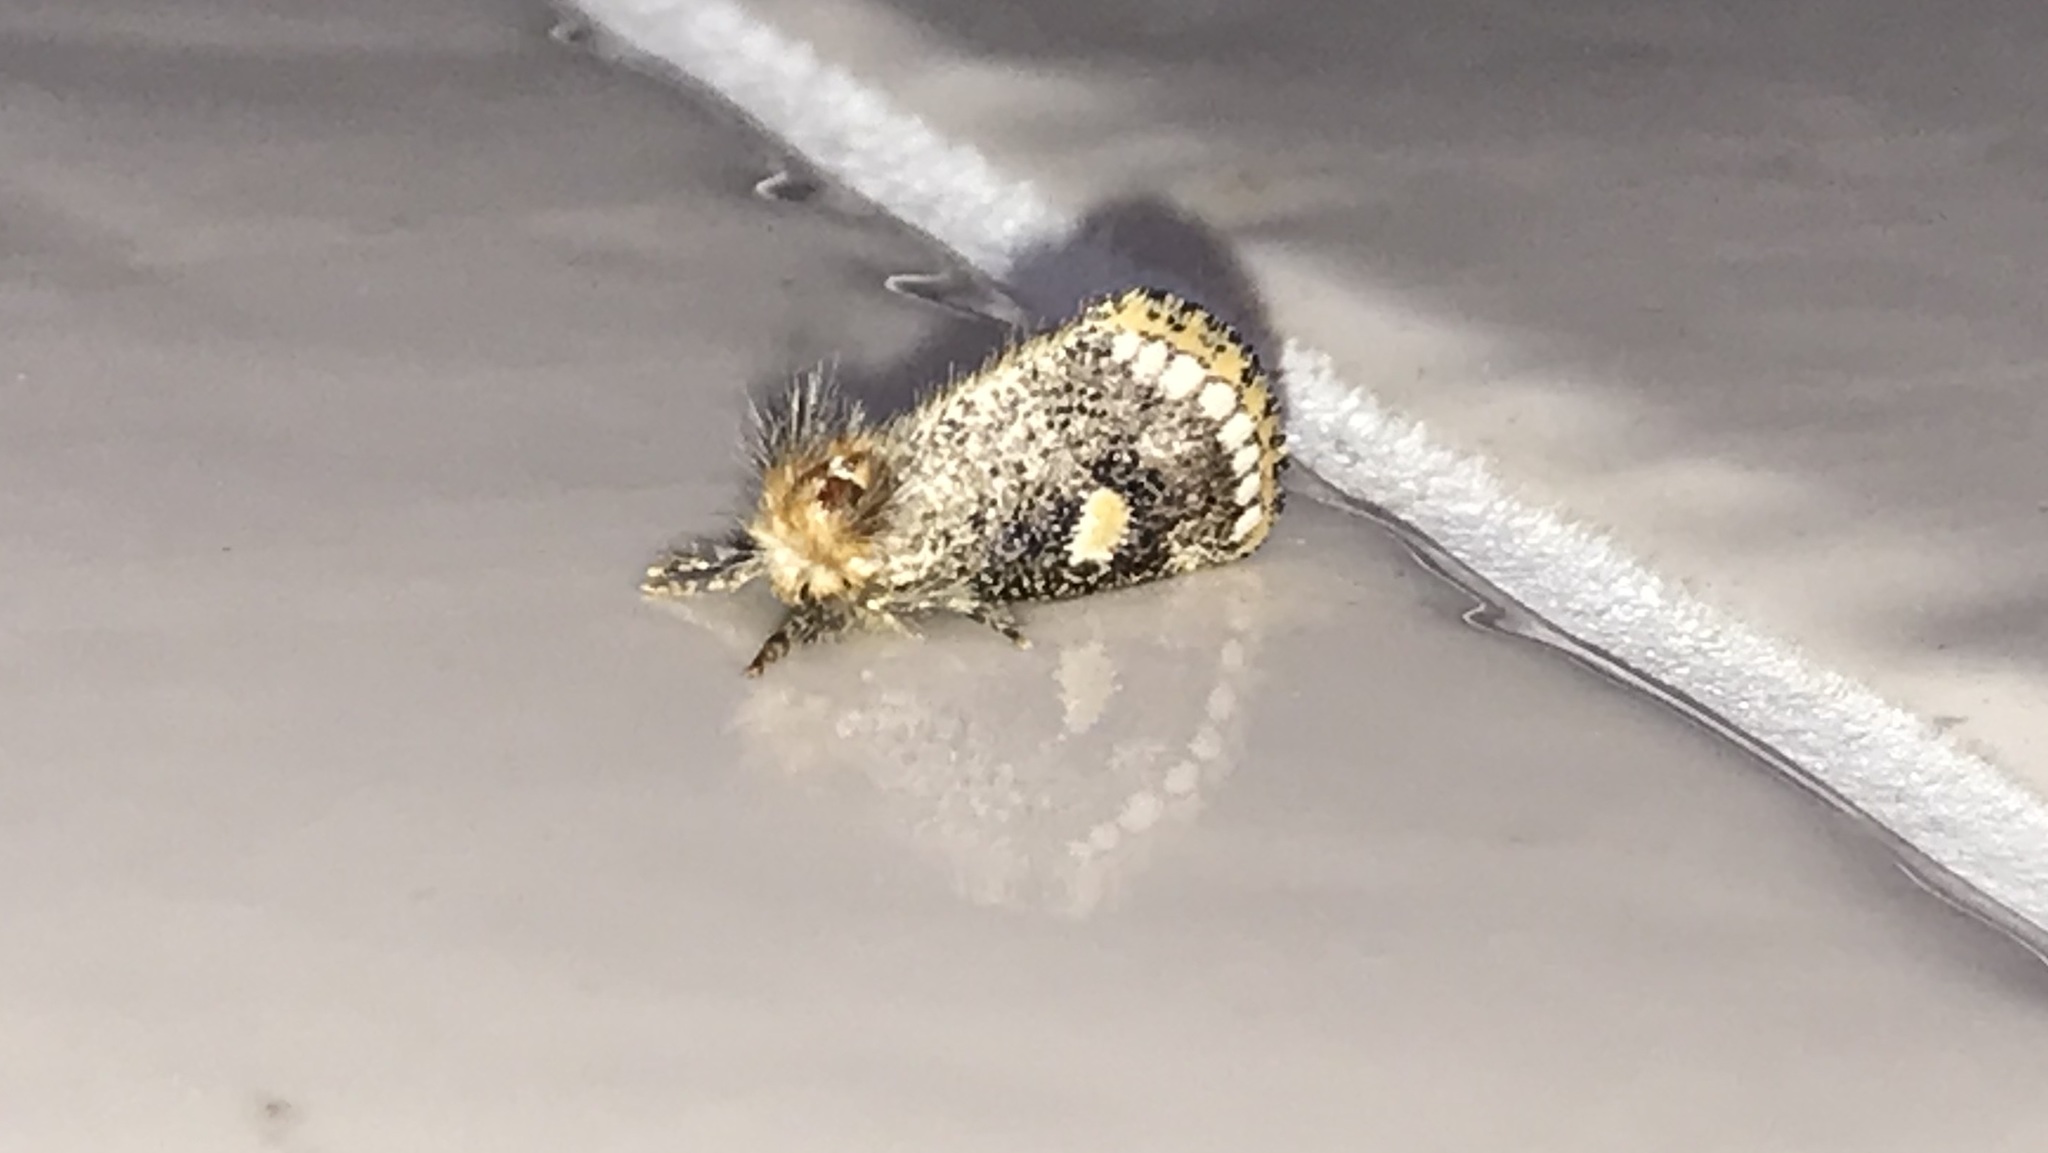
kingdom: Animalia
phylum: Arthropoda
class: Insecta
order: Lepidoptera
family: Notodontidae
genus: Epicoma
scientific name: Epicoma protrahens
